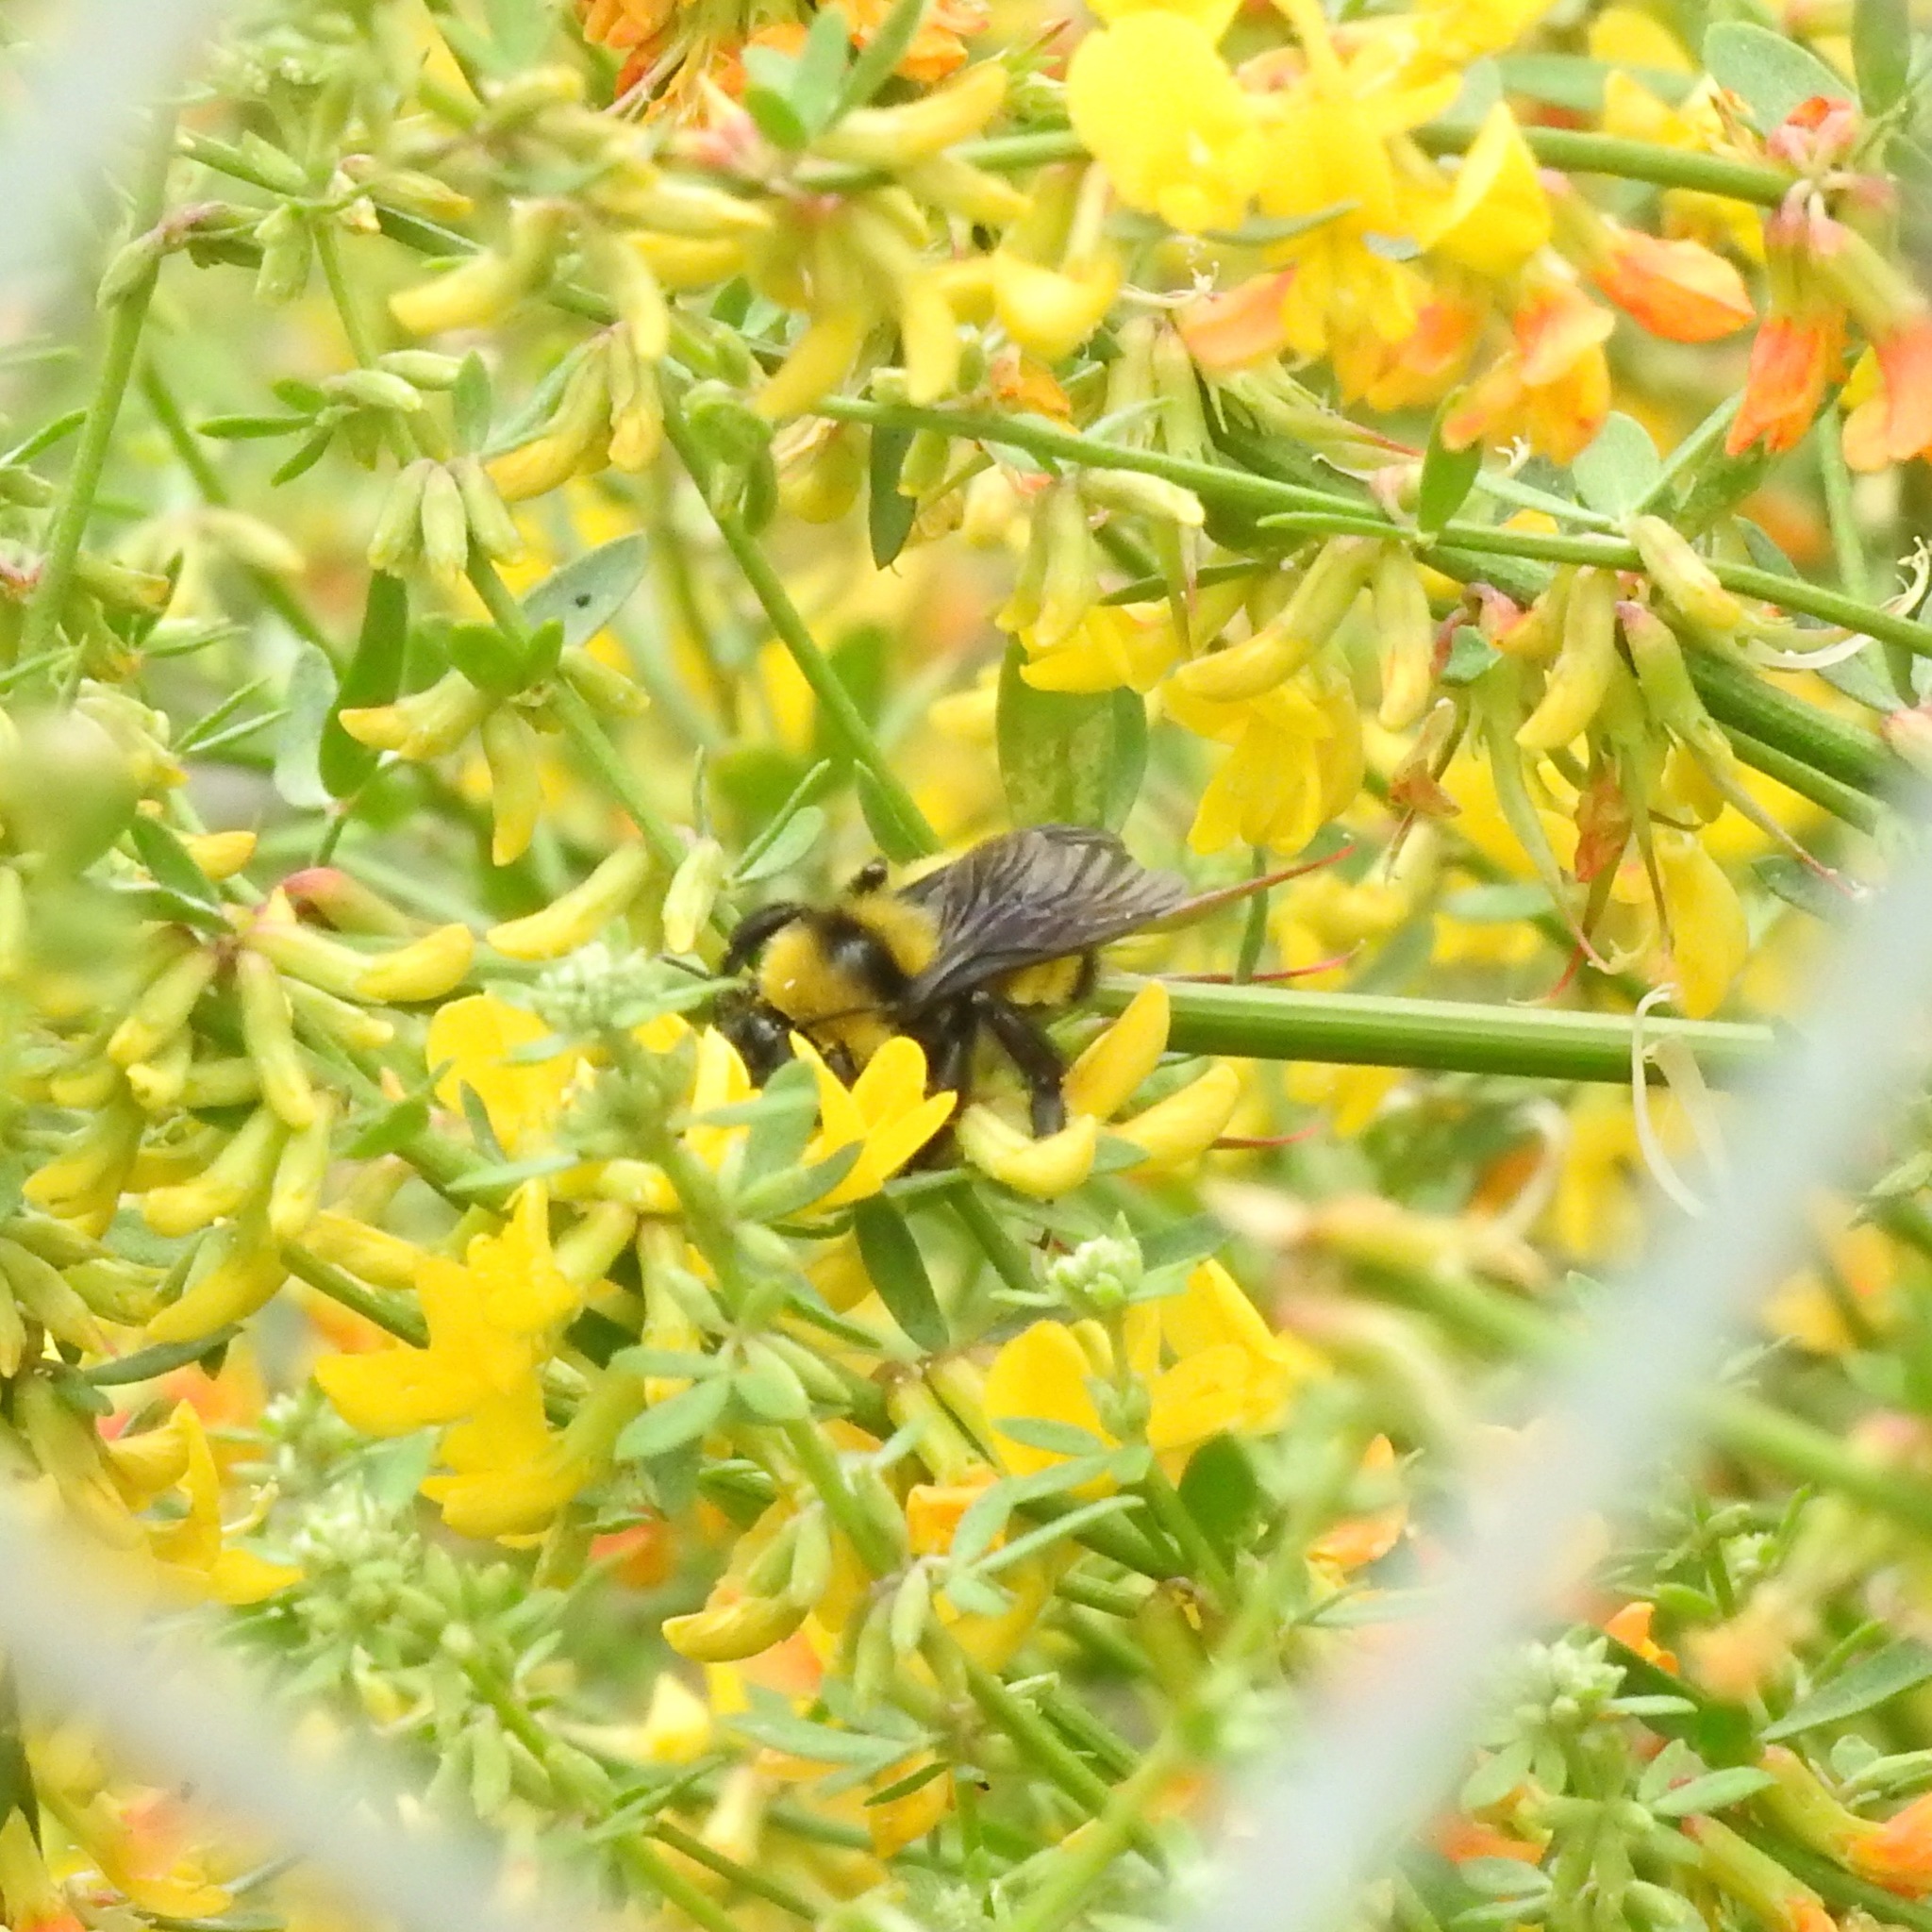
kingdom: Animalia
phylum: Arthropoda
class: Insecta
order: Hymenoptera
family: Apidae
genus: Bombus
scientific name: Bombus sonorus
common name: Sonoran bumble bee
